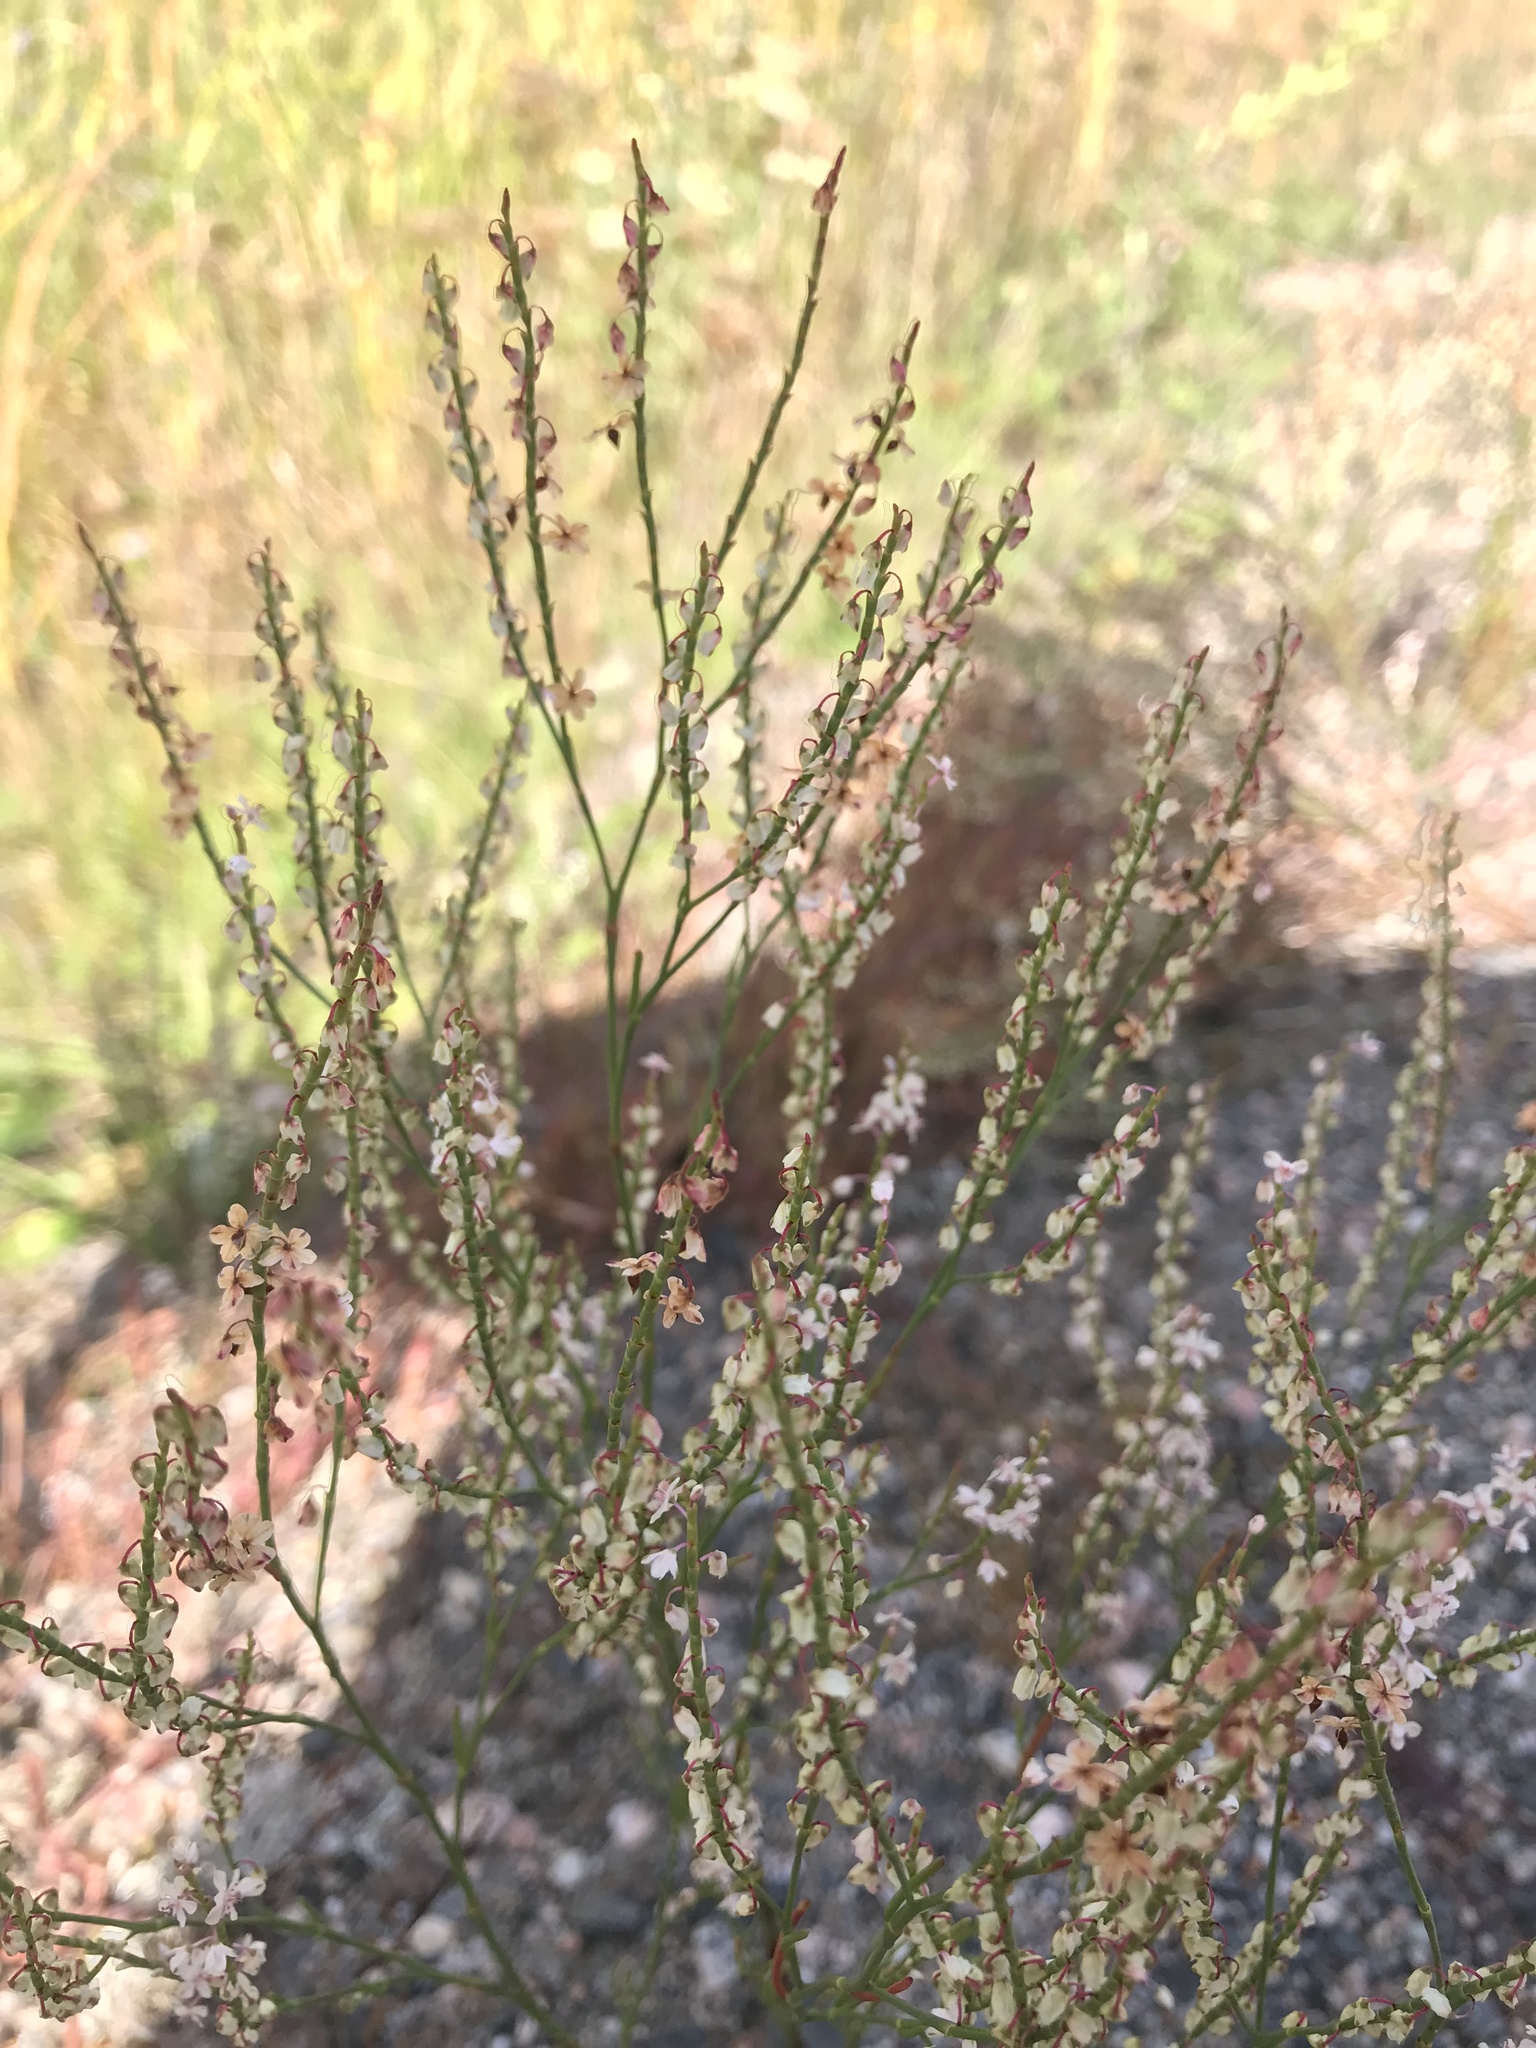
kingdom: Plantae
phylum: Tracheophyta
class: Magnoliopsida
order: Caryophyllales
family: Polygonaceae
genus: Polygonella
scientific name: Polygonella articulata
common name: Coastal jointweed
